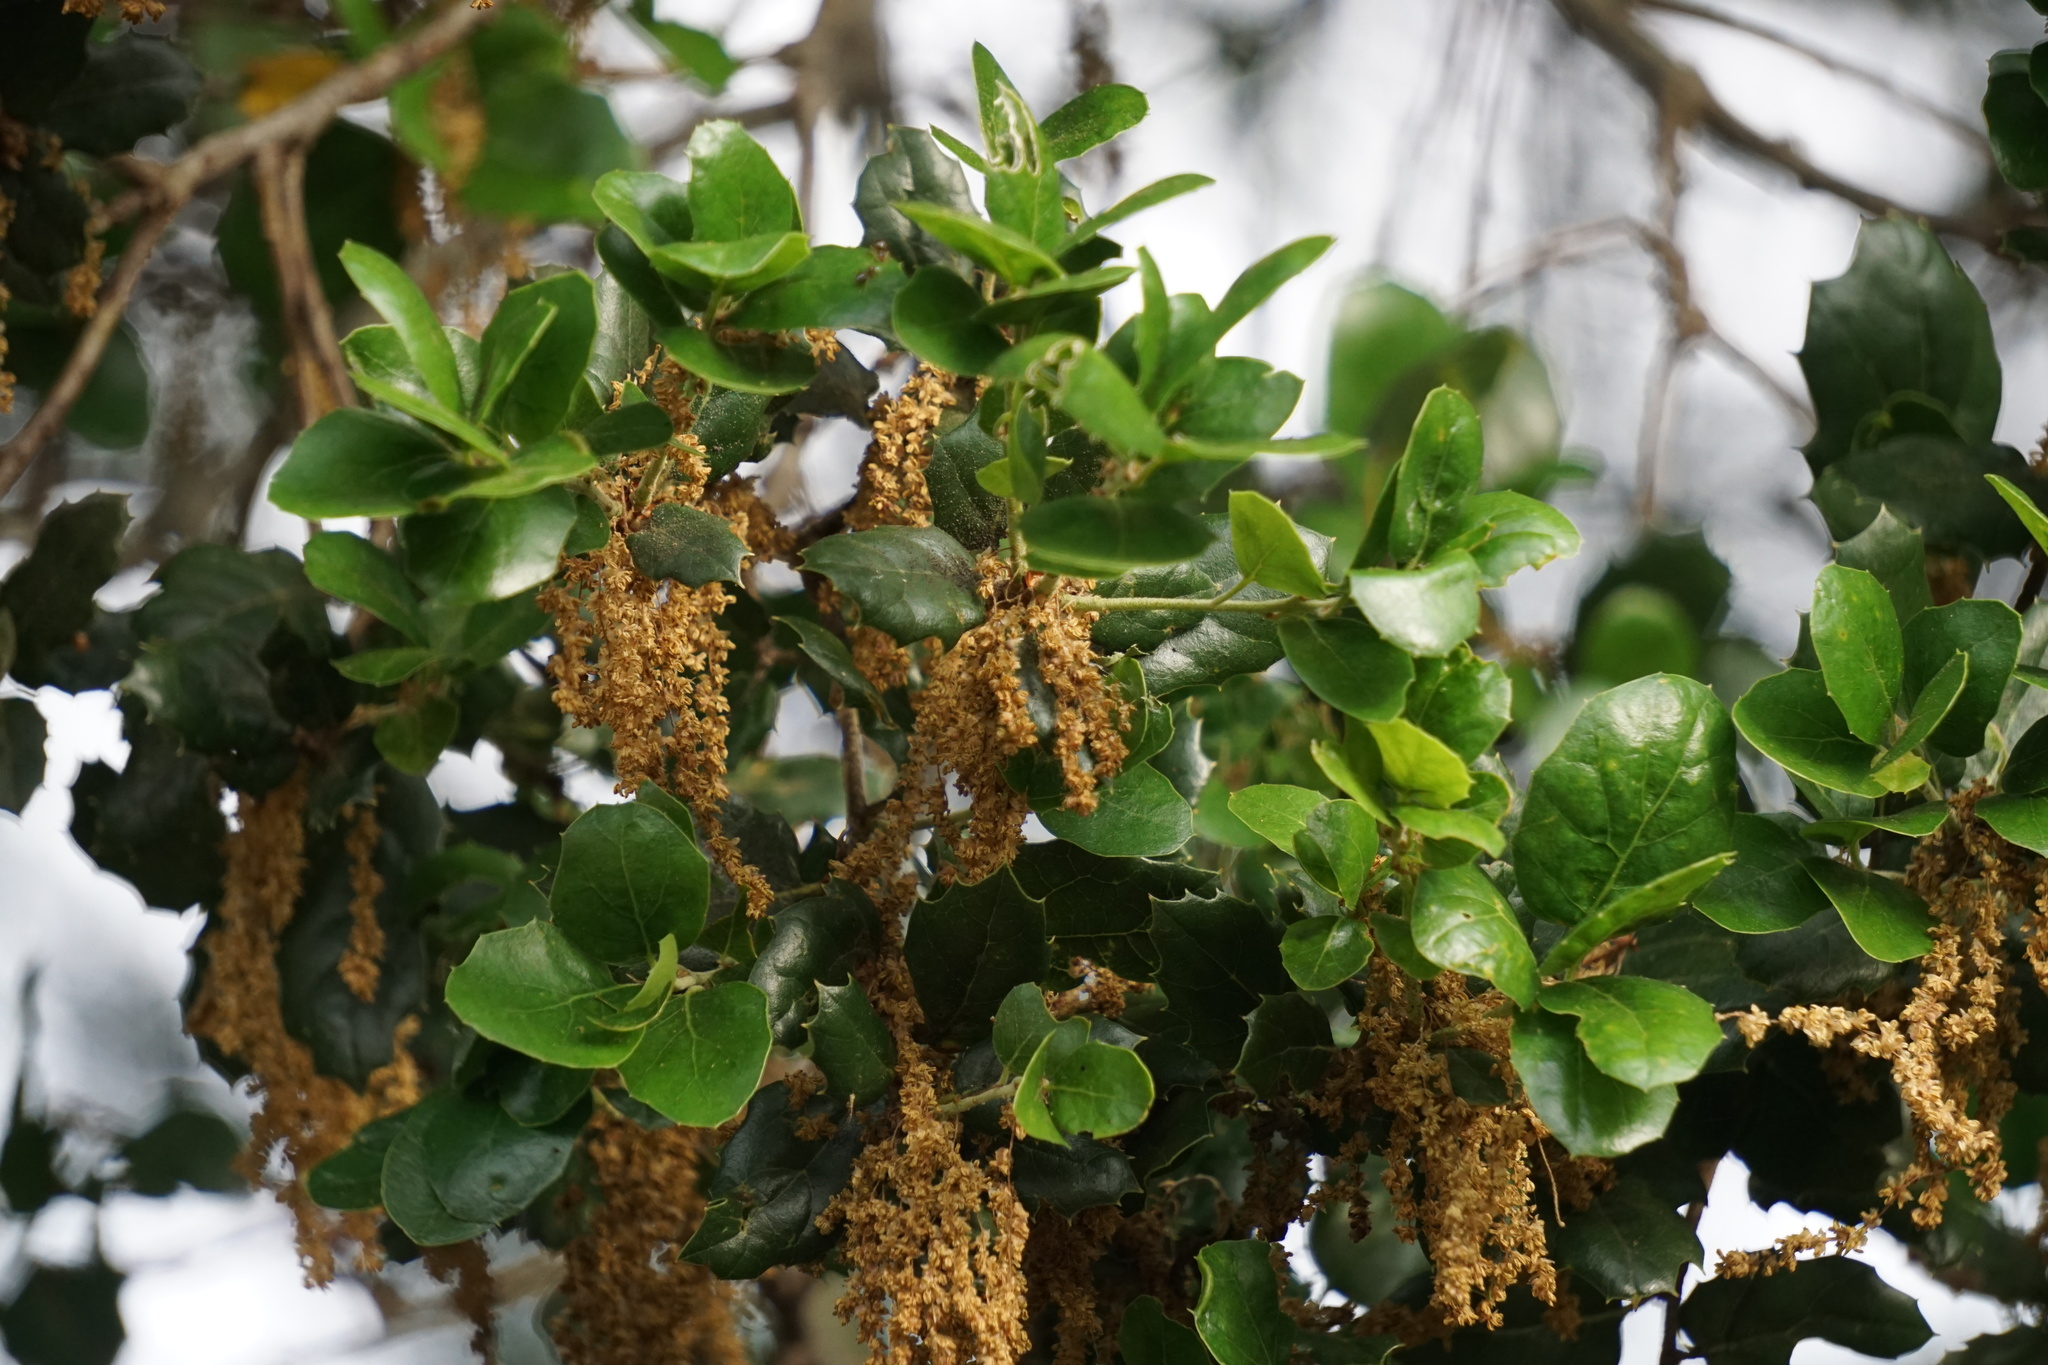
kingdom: Plantae
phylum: Tracheophyta
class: Magnoliopsida
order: Fagales
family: Fagaceae
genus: Quercus
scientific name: Quercus agrifolia
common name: California live oak
